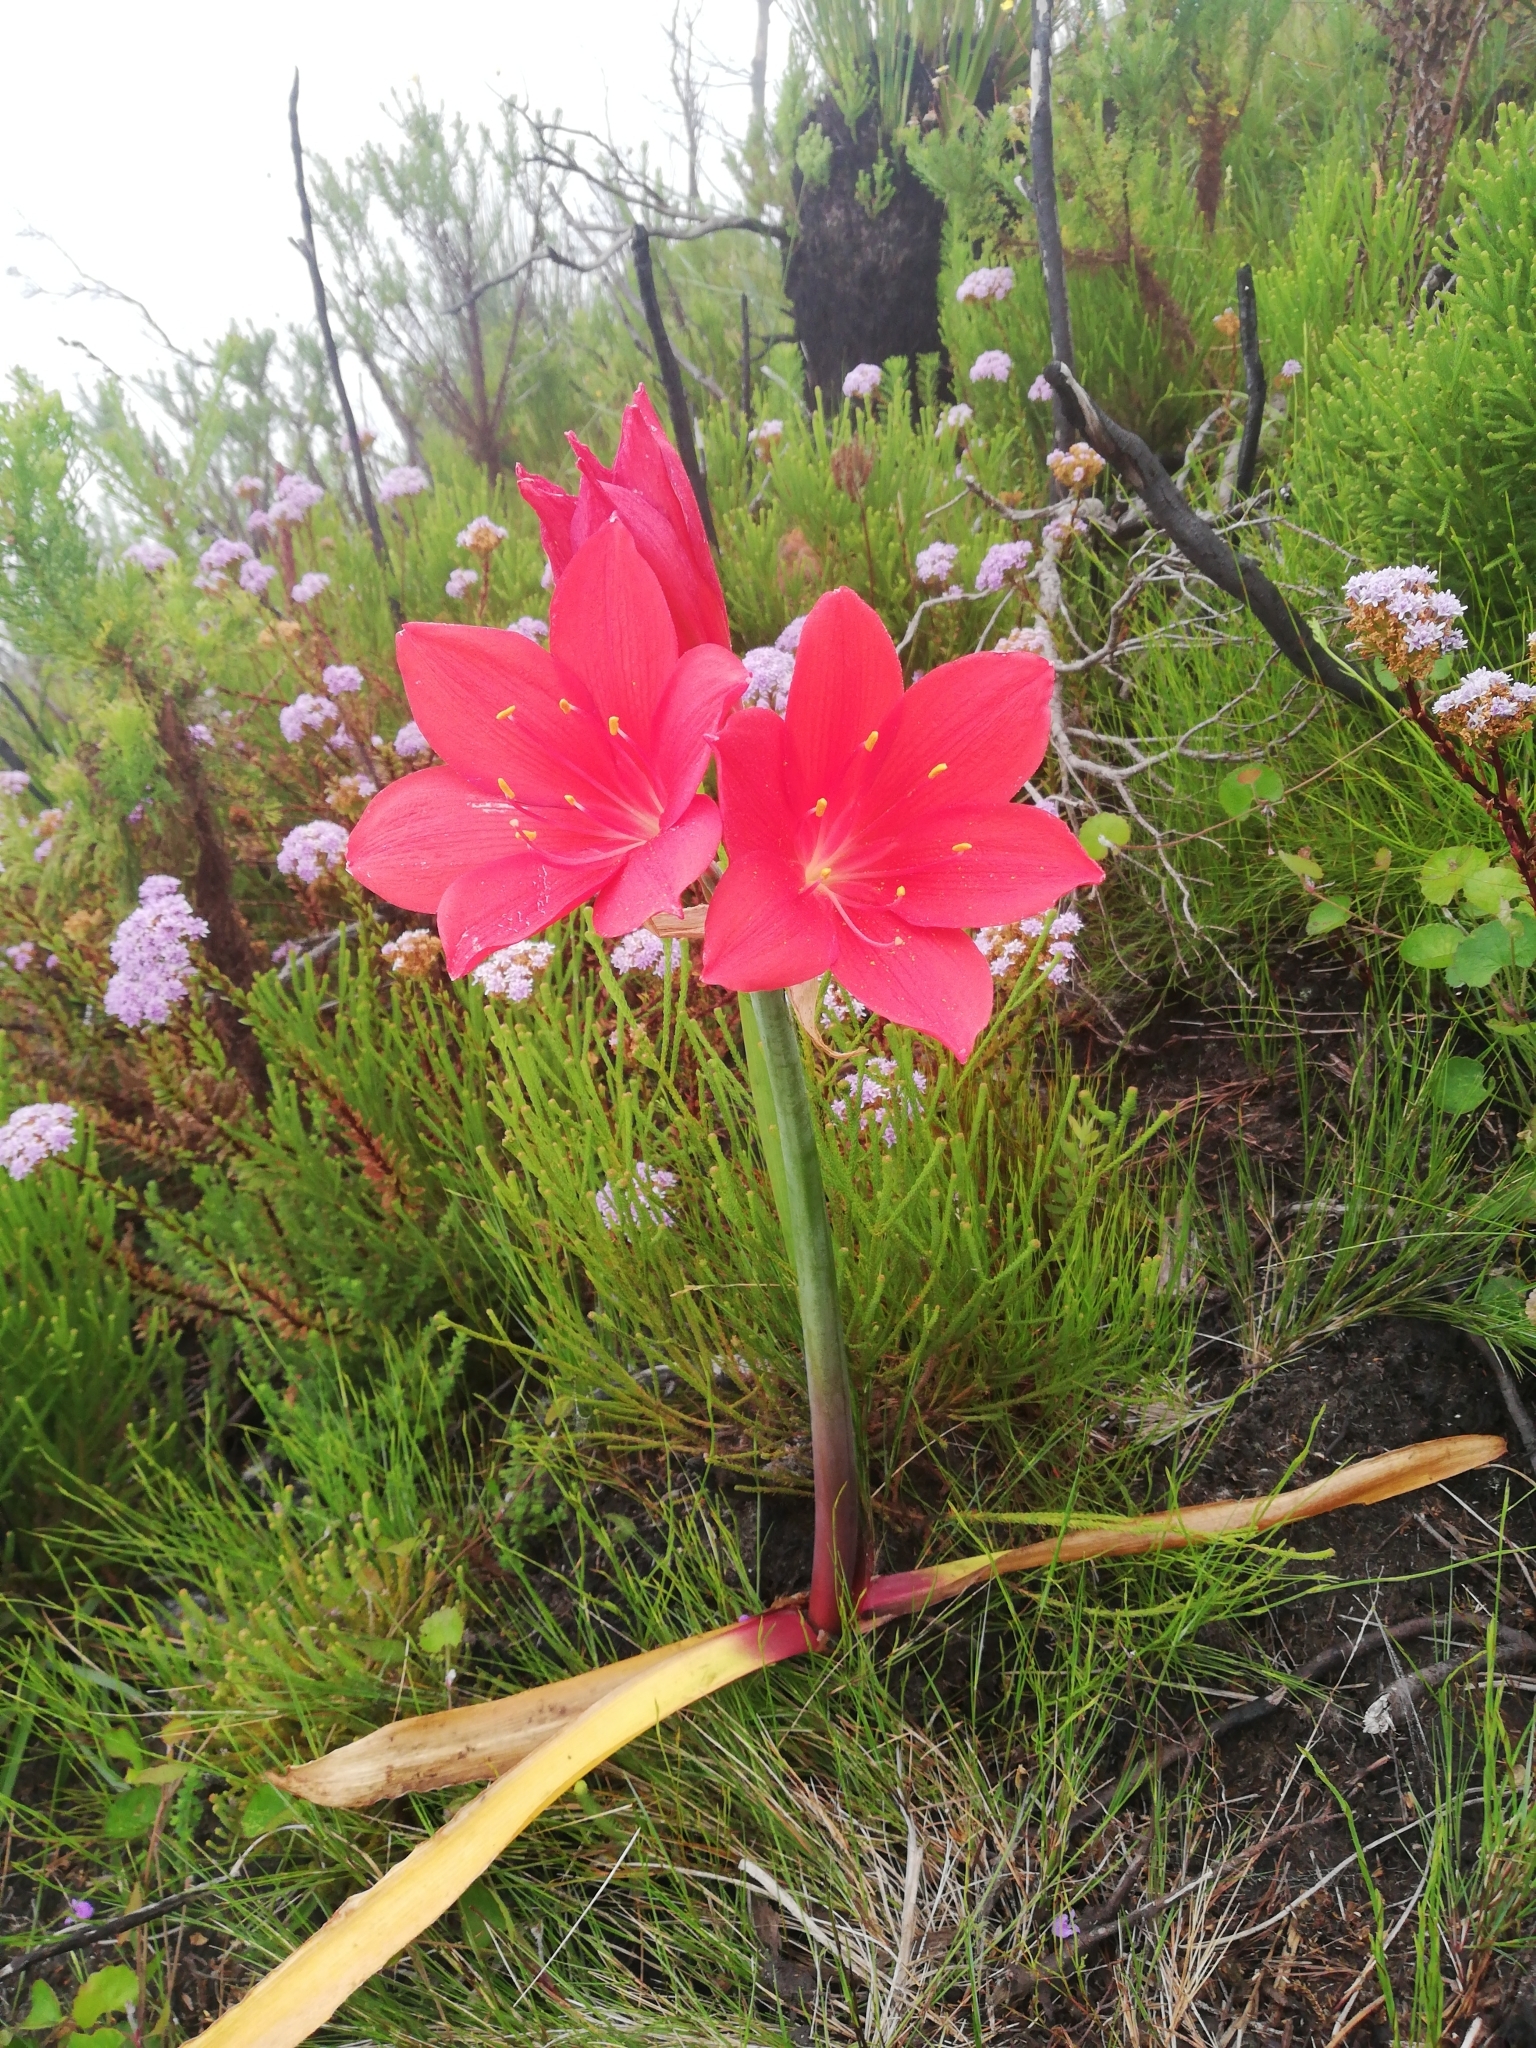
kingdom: Plantae
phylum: Tracheophyta
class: Liliopsida
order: Asparagales
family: Amaryllidaceae
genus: Cyrtanthus
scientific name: Cyrtanthus elatus
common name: Scarborough-lily
